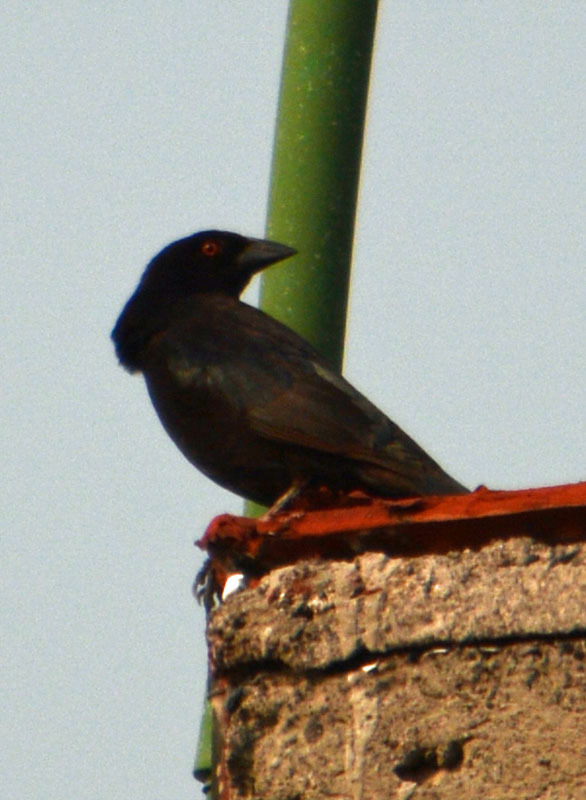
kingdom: Animalia
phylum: Chordata
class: Aves
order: Passeriformes
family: Icteridae
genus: Molothrus
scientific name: Molothrus aeneus
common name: Bronzed cowbird
